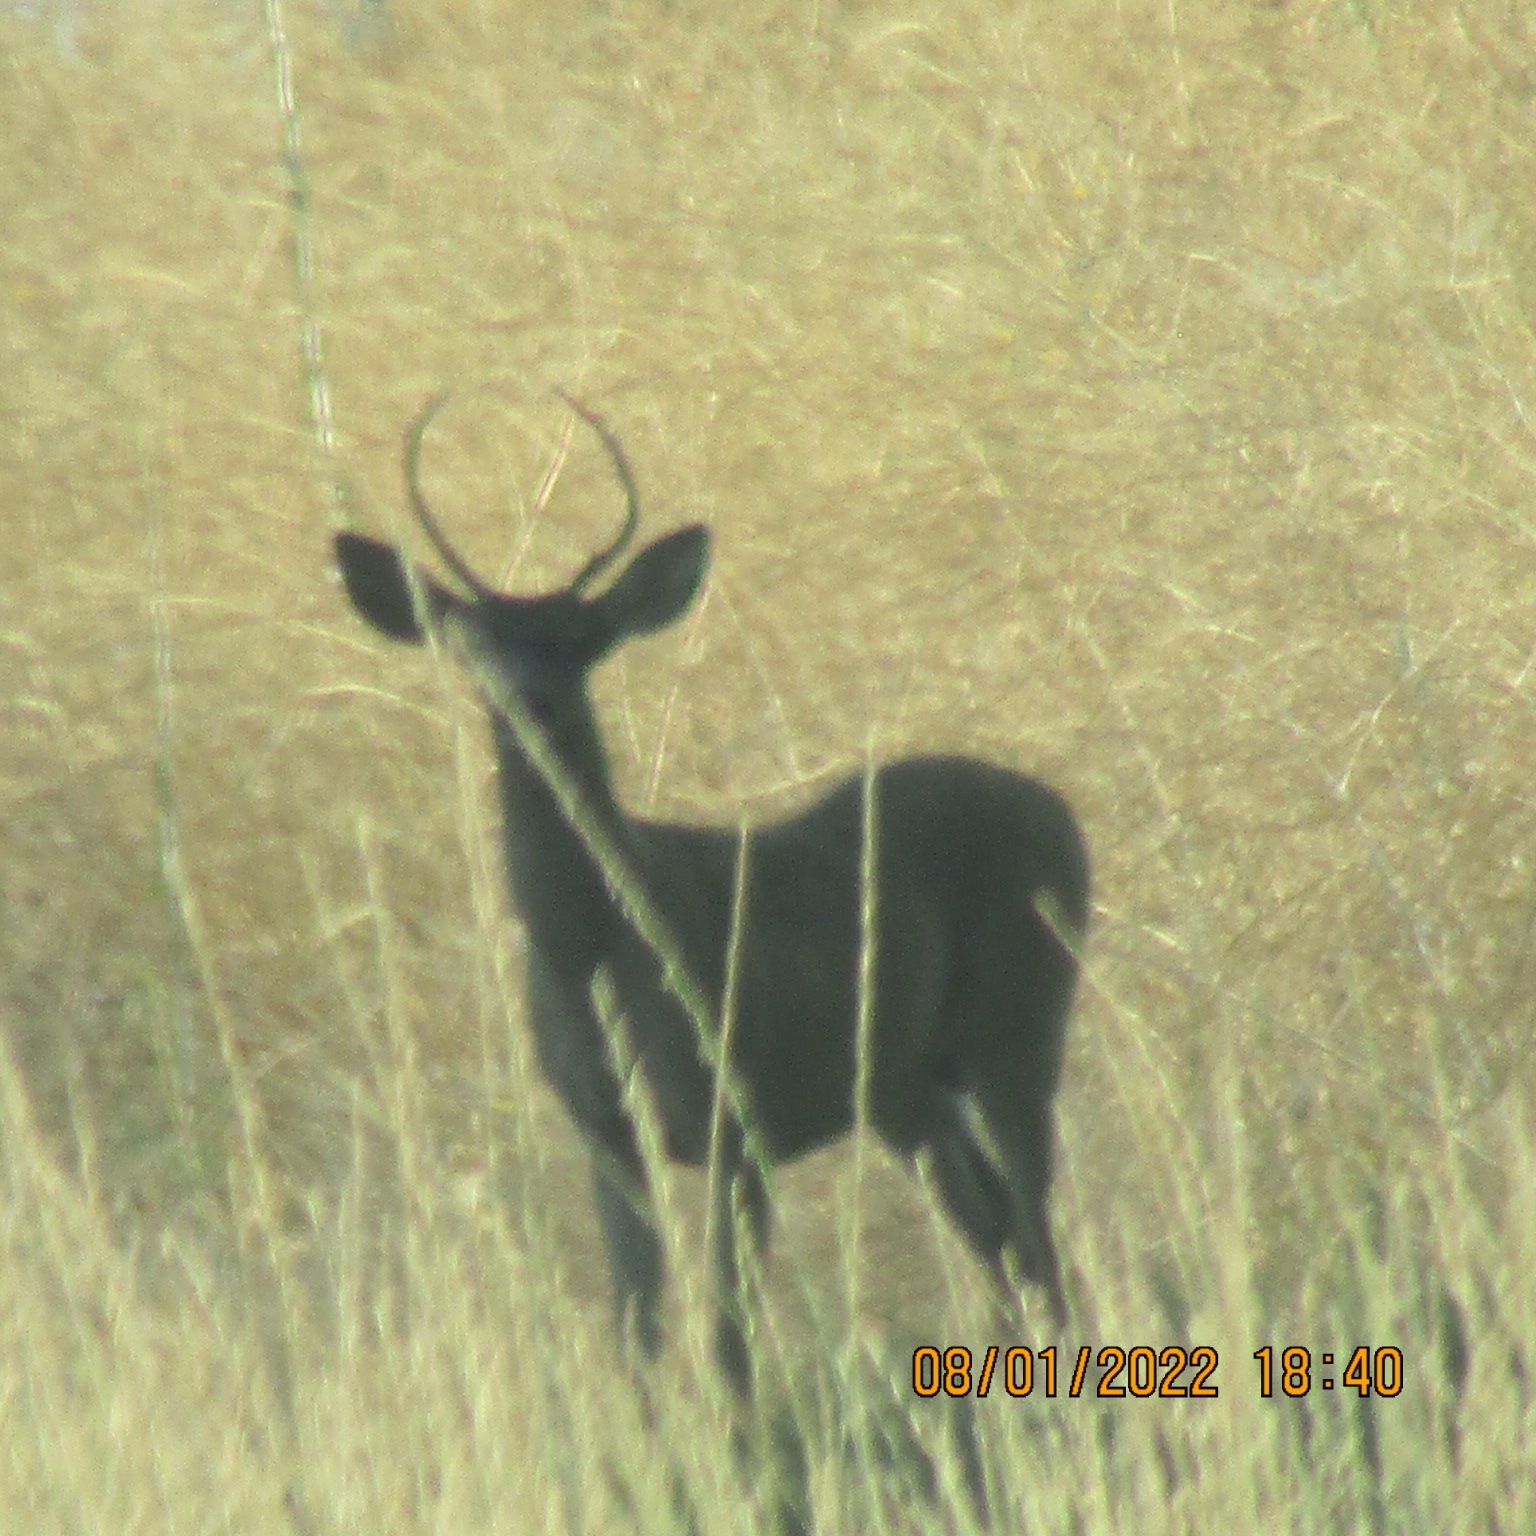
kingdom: Animalia
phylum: Chordata
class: Mammalia
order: Artiodactyla
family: Cervidae
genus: Odocoileus
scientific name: Odocoileus hemionus
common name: Mule deer
